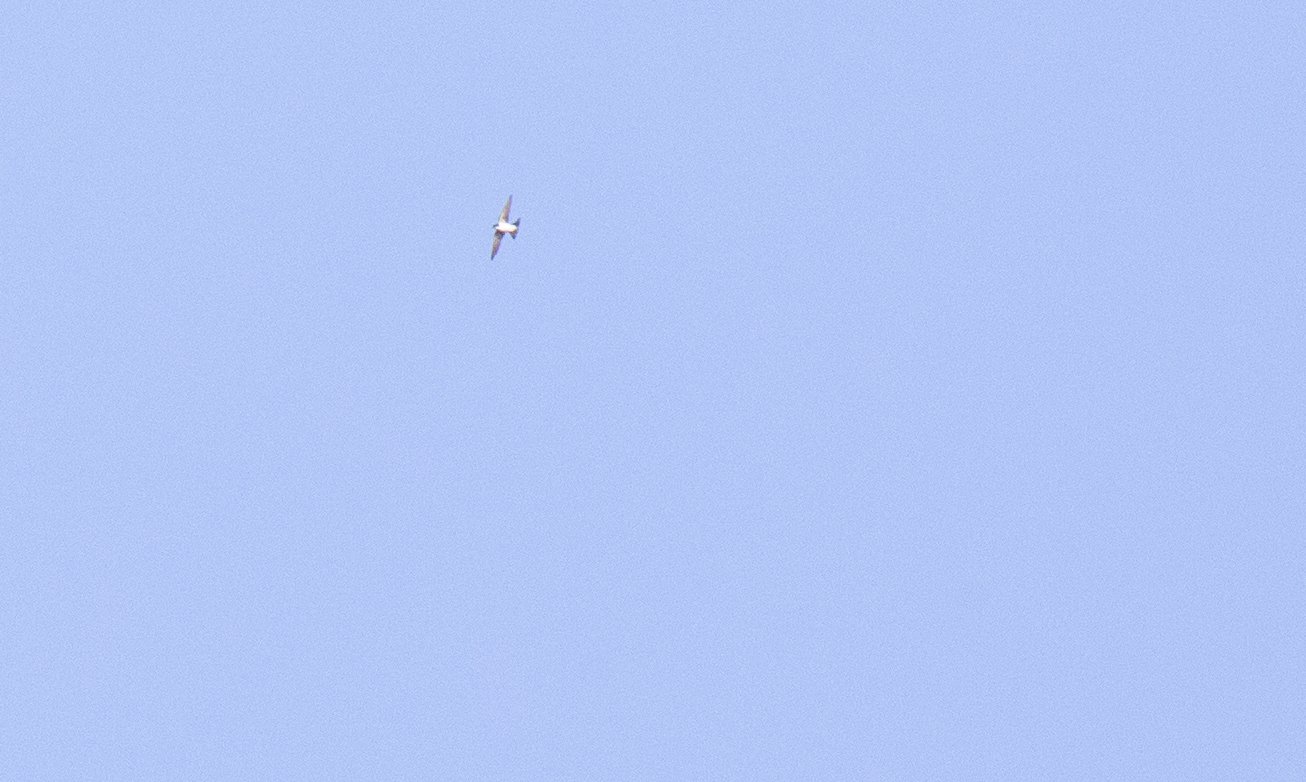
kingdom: Animalia
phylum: Chordata
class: Aves
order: Passeriformes
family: Hirundinidae
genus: Delichon
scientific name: Delichon urbicum
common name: Common house martin
